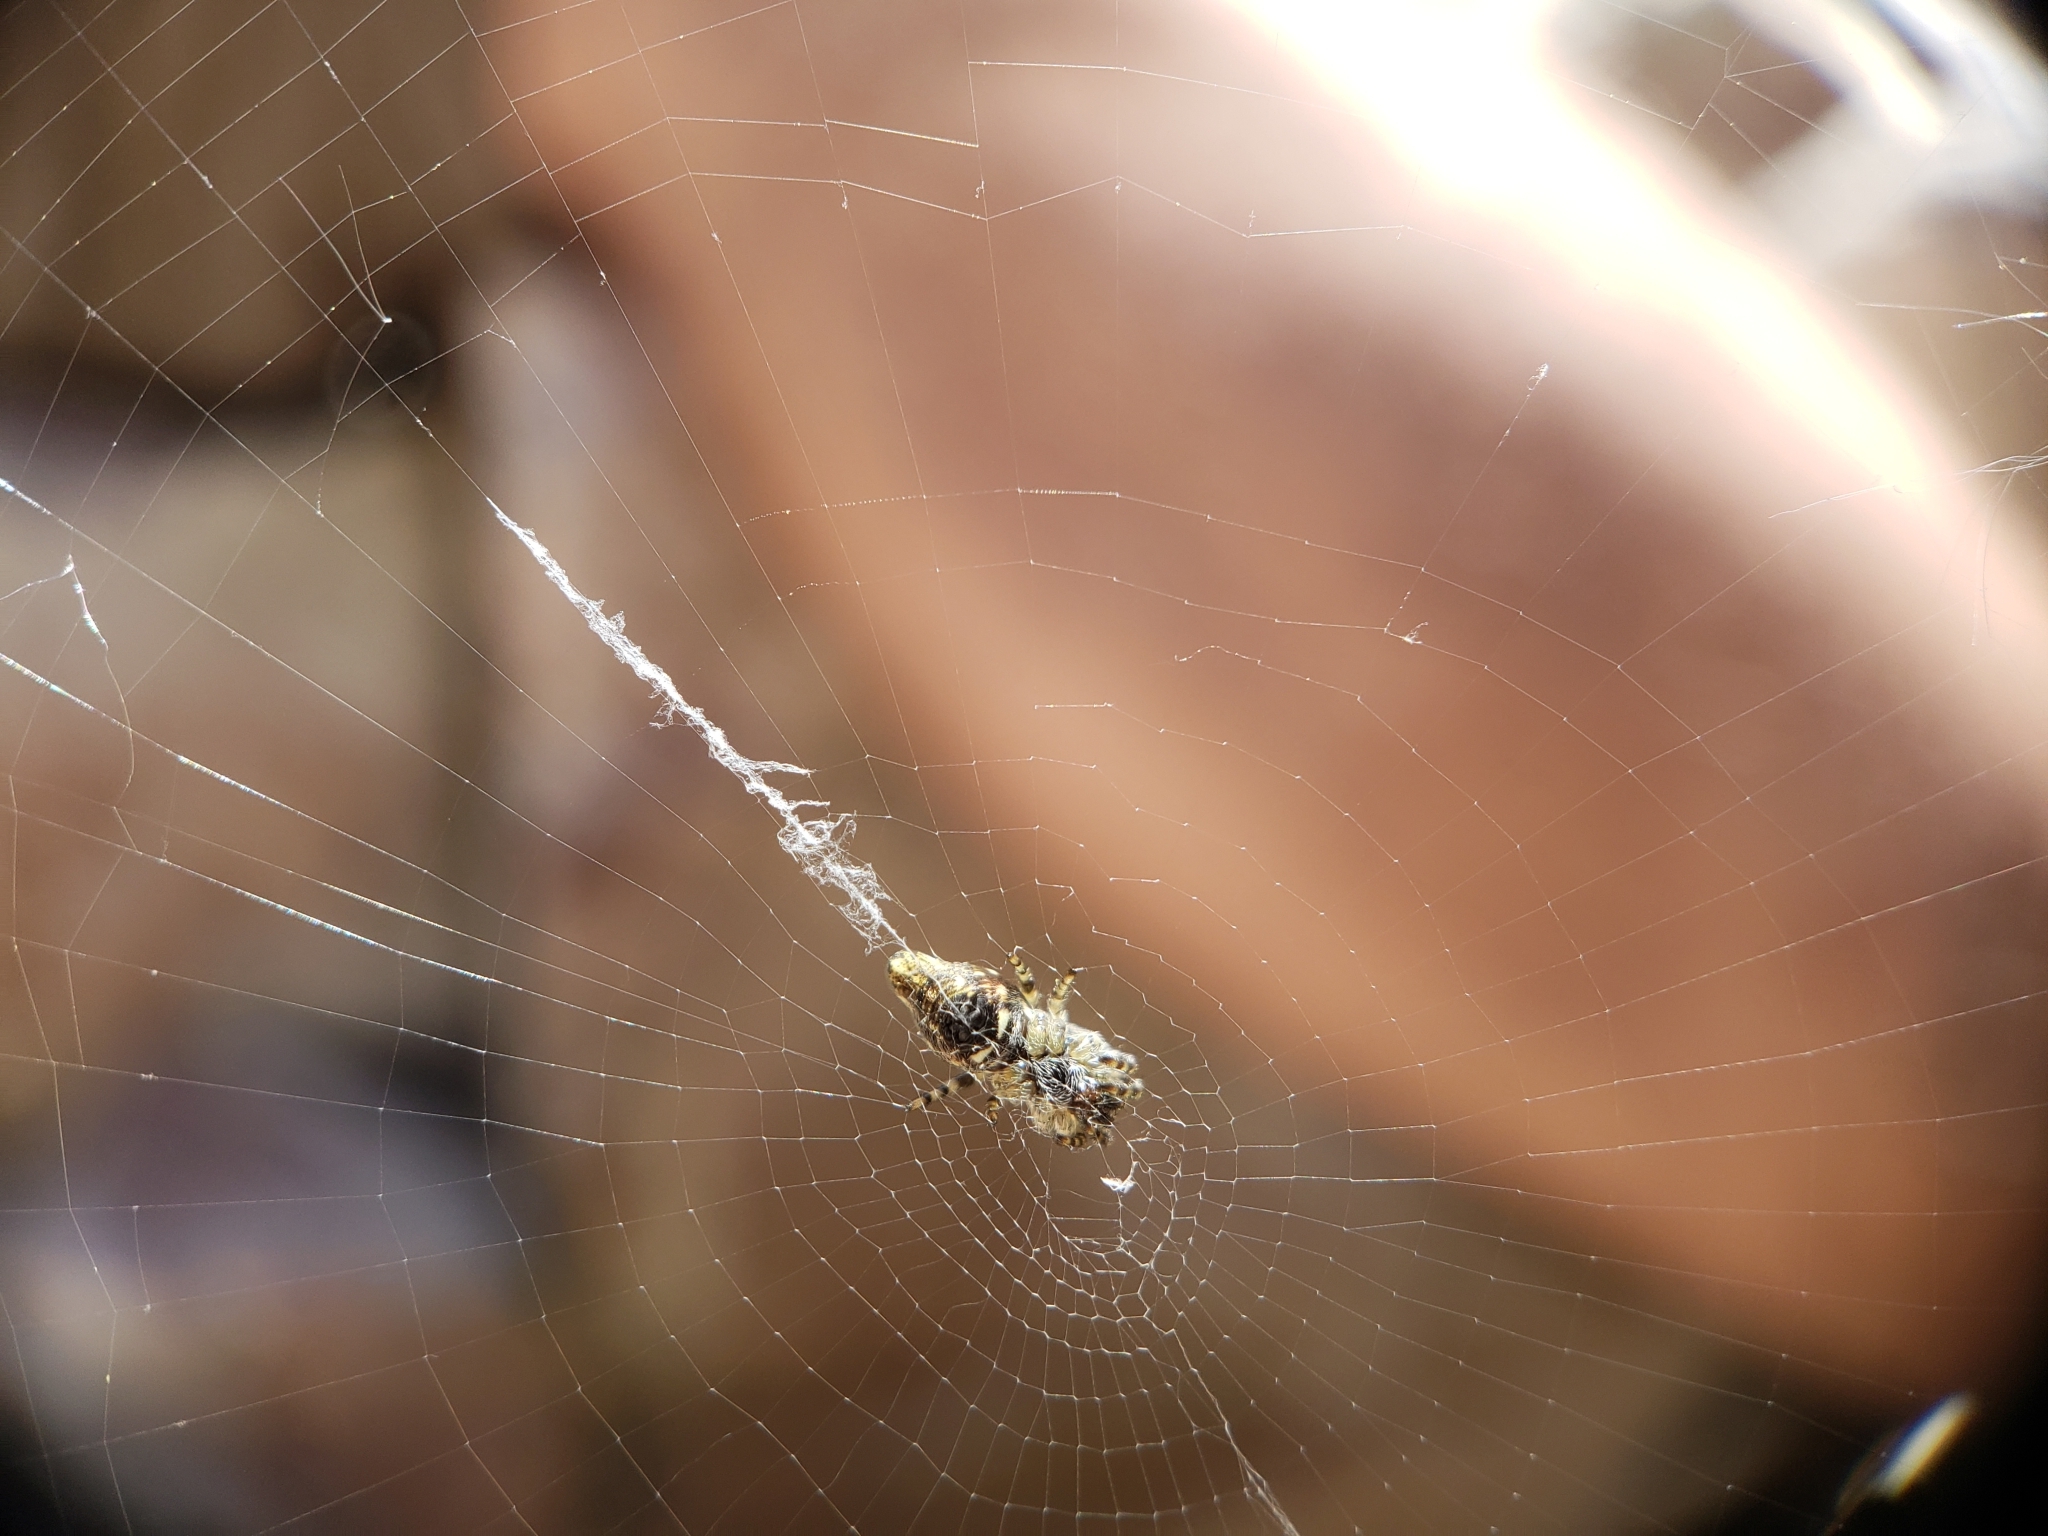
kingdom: Animalia
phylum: Arthropoda
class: Arachnida
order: Araneae
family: Araneidae
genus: Cyclosa
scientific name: Cyclosa conica
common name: Conical trashline orbweaver
